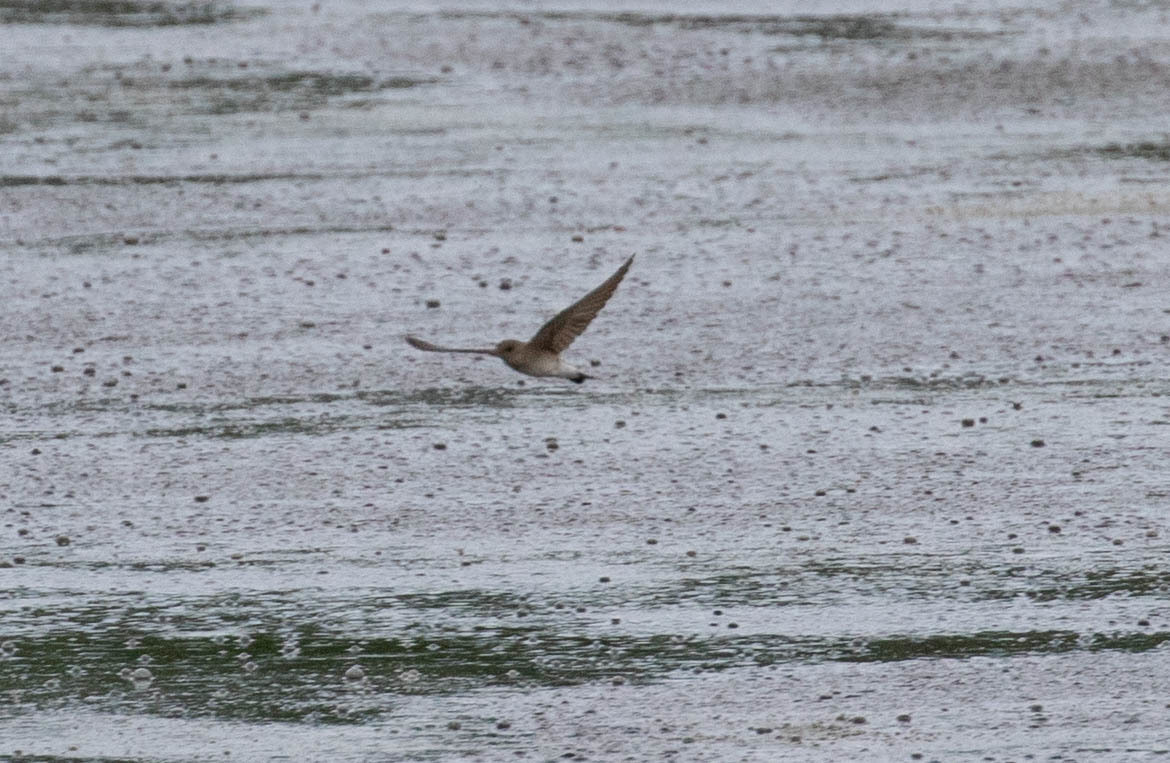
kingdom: Animalia
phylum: Chordata
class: Aves
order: Passeriformes
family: Hirundinidae
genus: Stelgidopteryx
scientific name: Stelgidopteryx serripennis
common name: Northern rough-winged swallow
